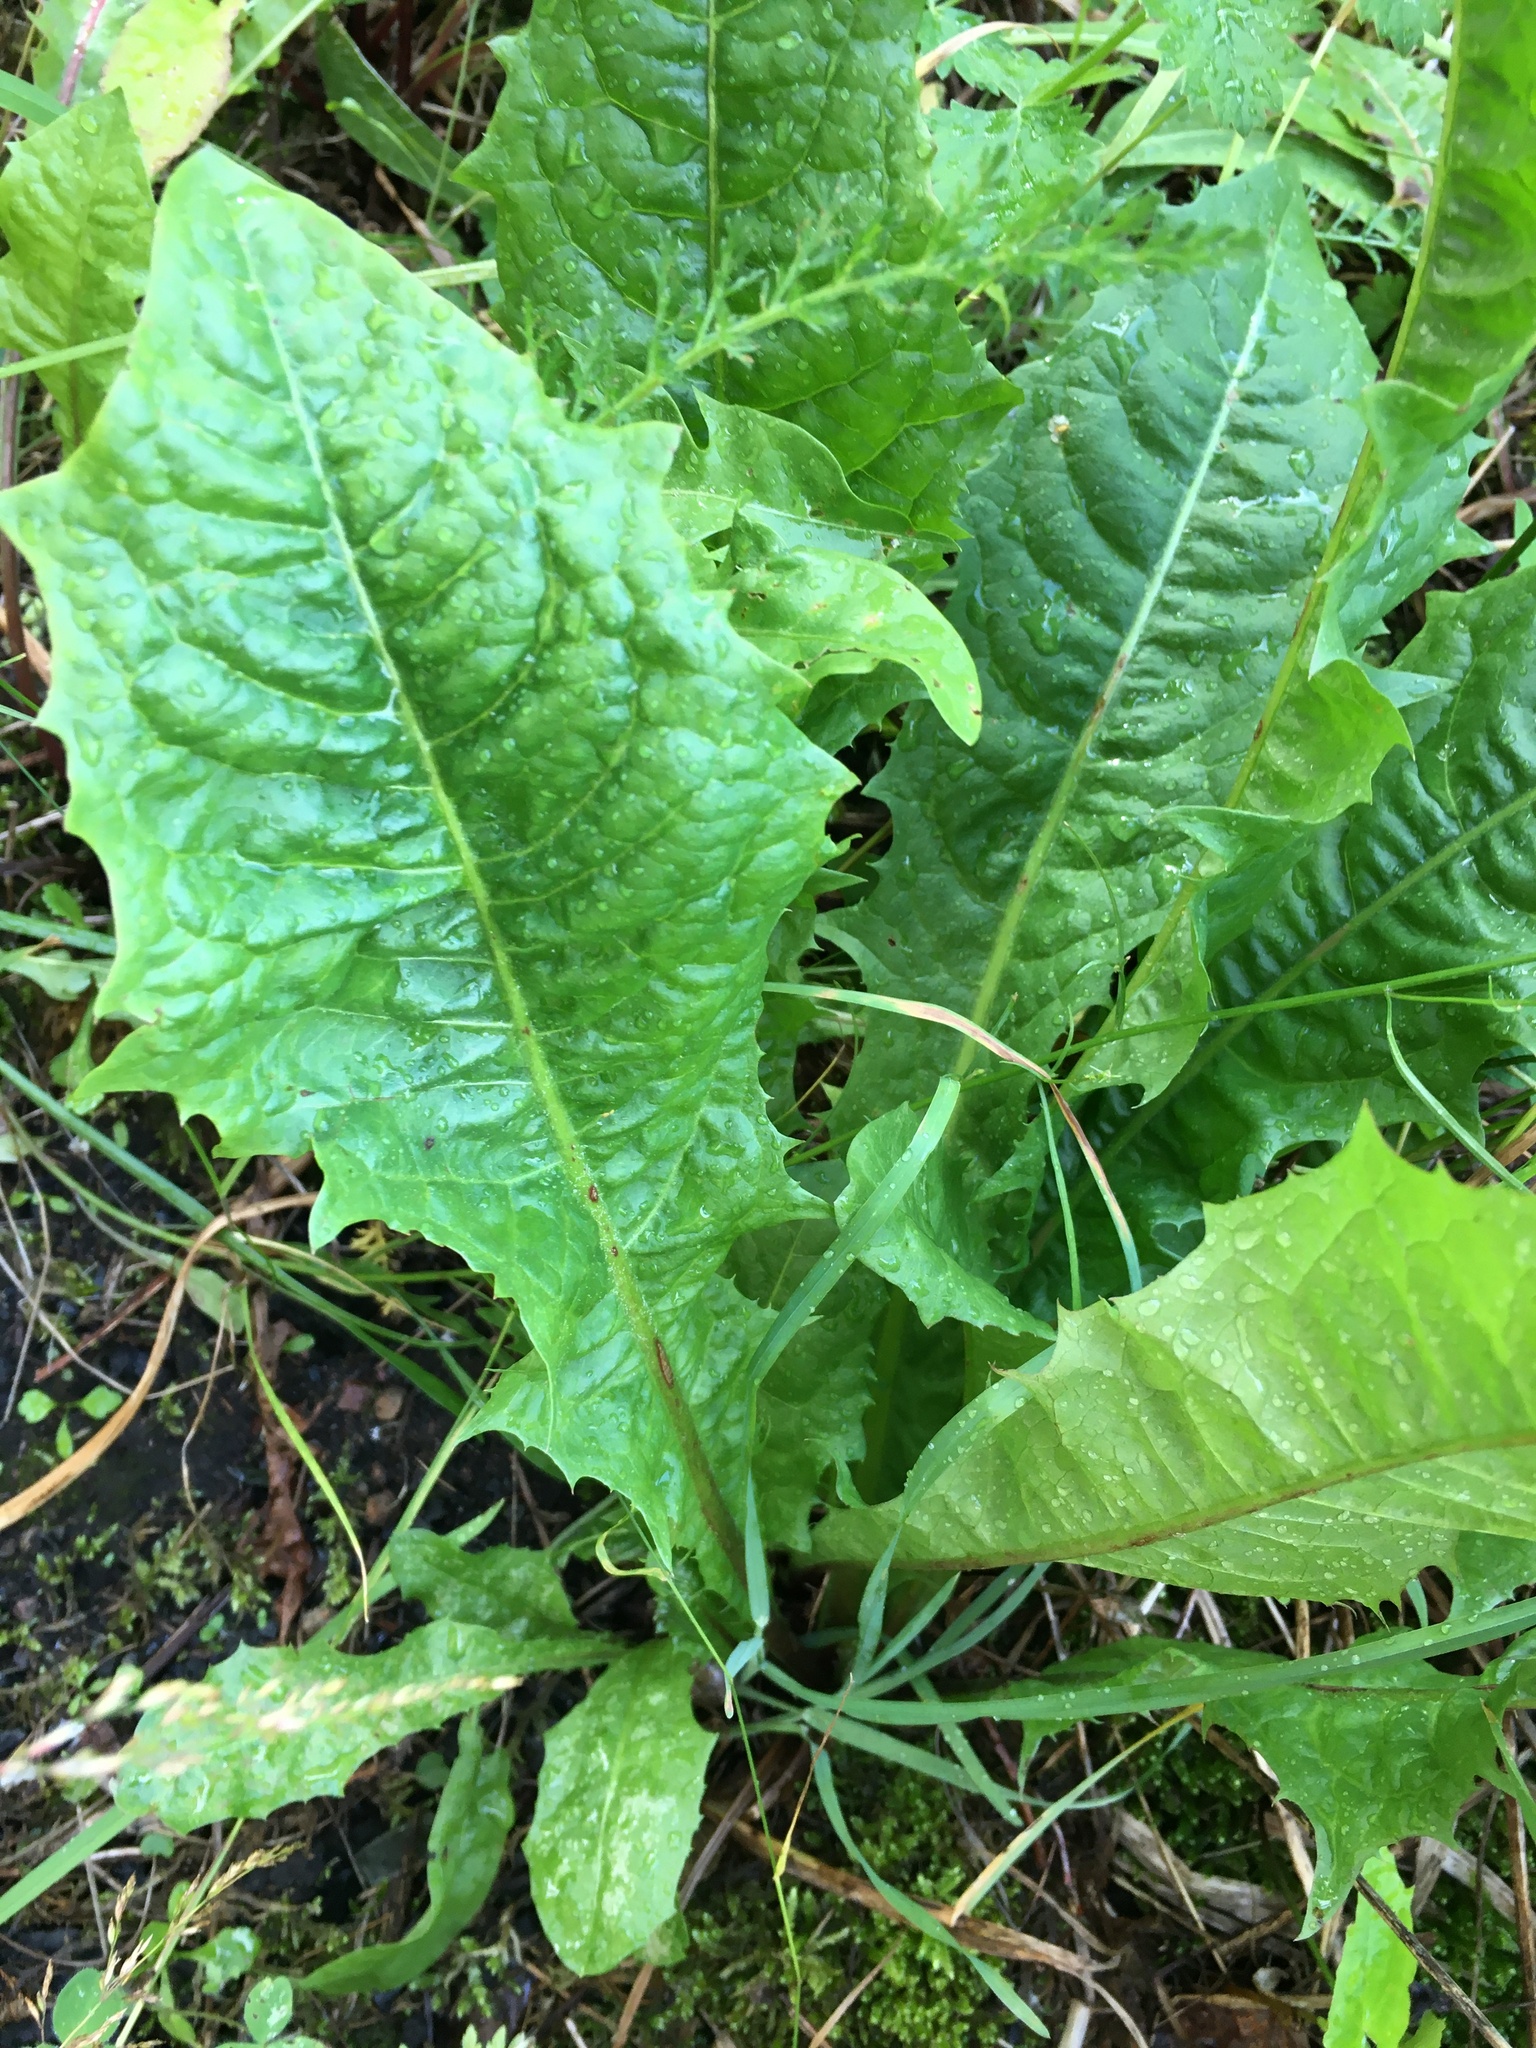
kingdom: Plantae
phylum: Tracheophyta
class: Magnoliopsida
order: Asterales
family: Asteraceae
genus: Taraxacum
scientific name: Taraxacum officinale
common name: Common dandelion
